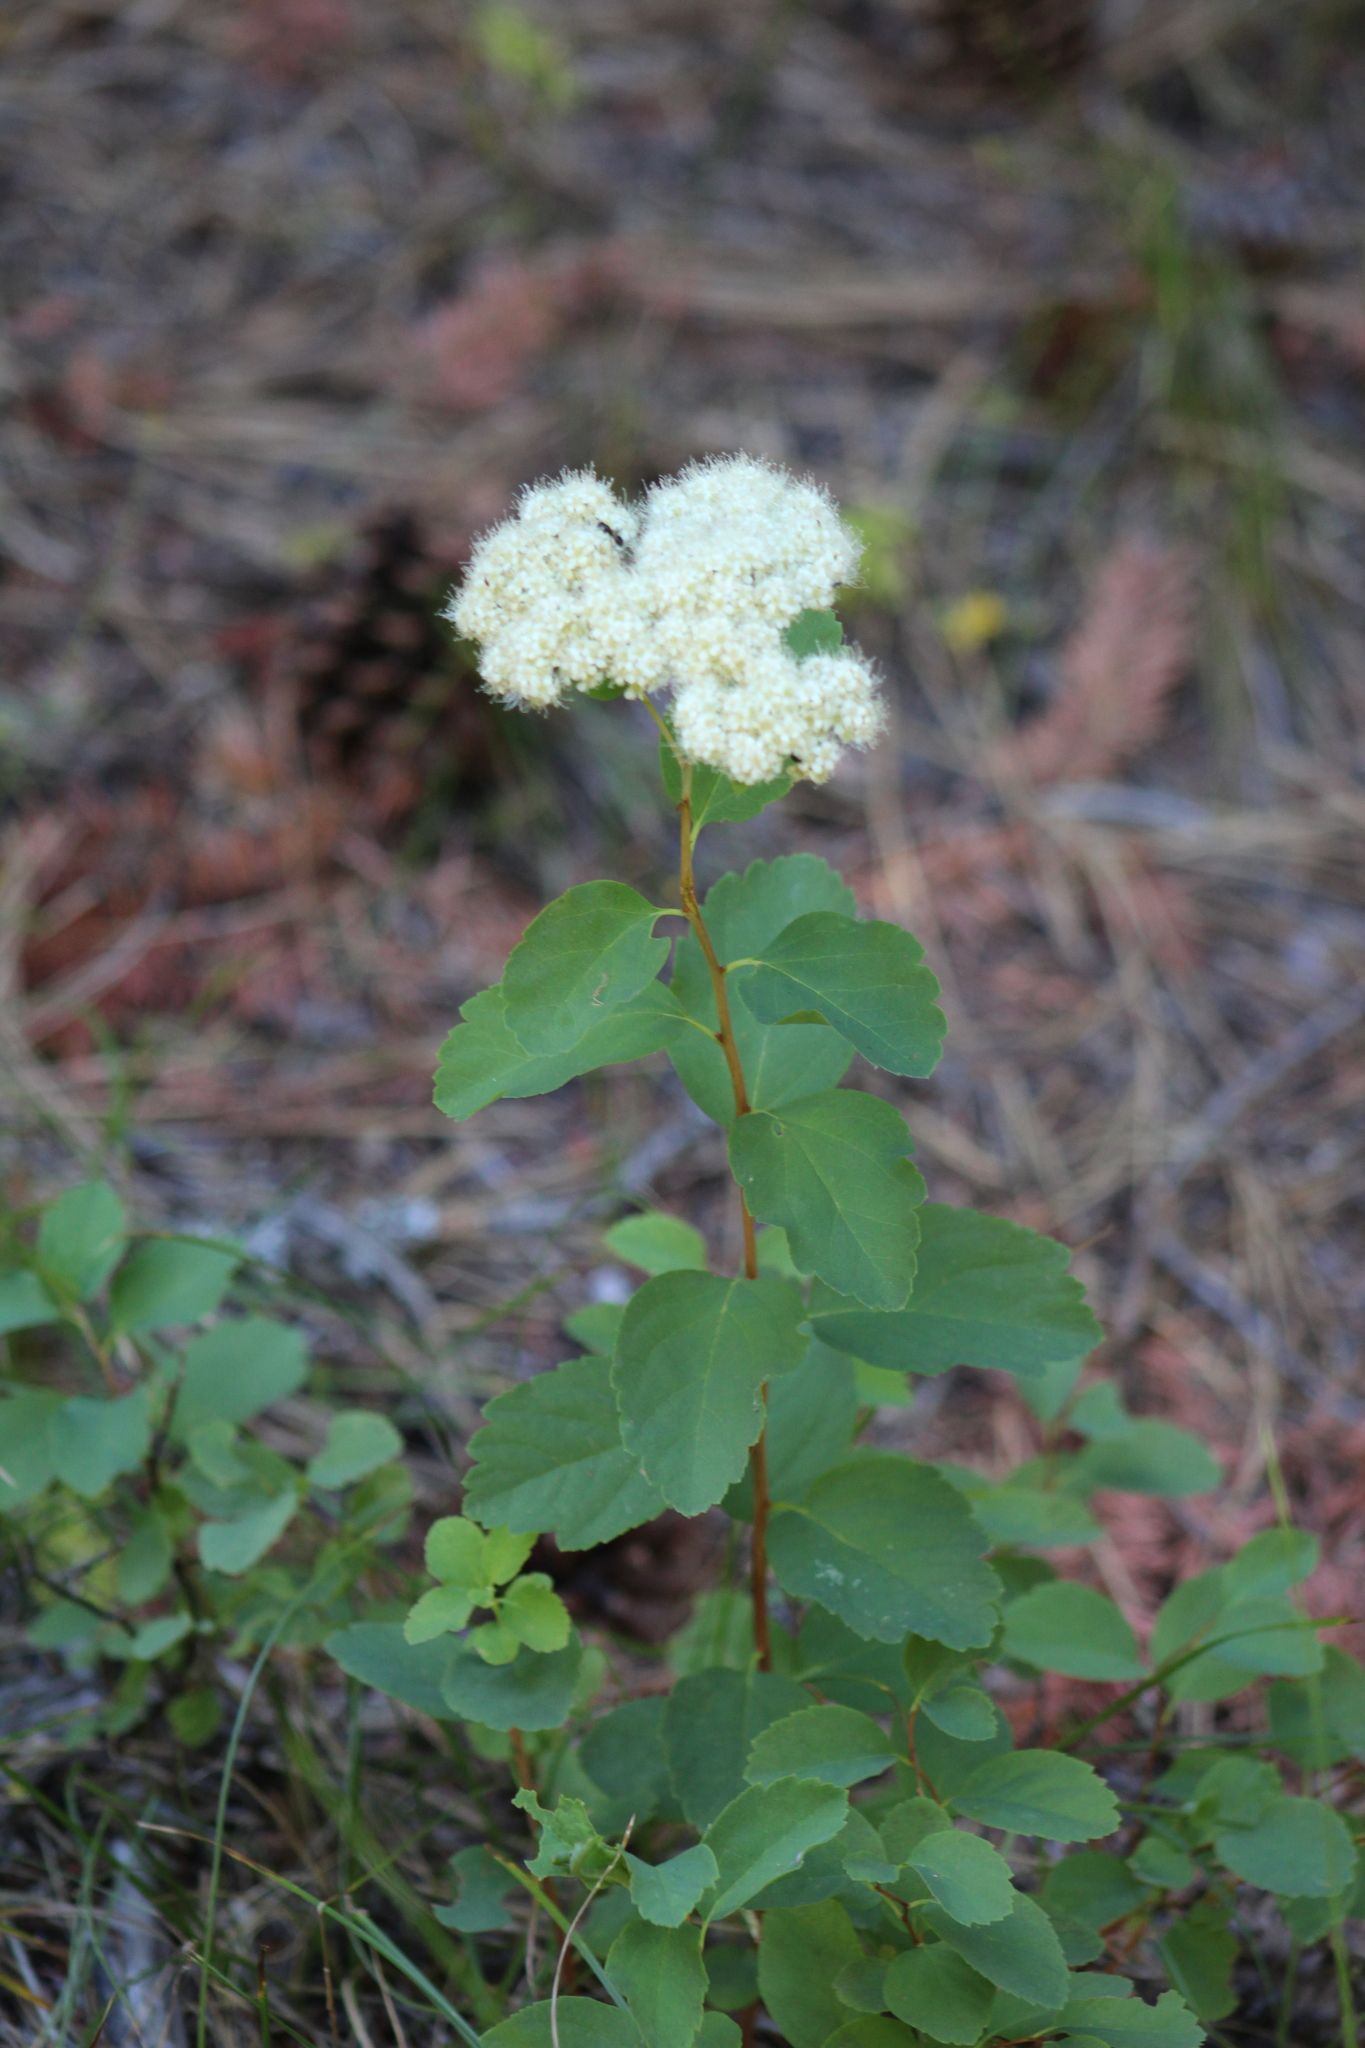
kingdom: Plantae
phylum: Tracheophyta
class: Magnoliopsida
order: Rosales
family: Rosaceae
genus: Spiraea
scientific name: Spiraea lucida
